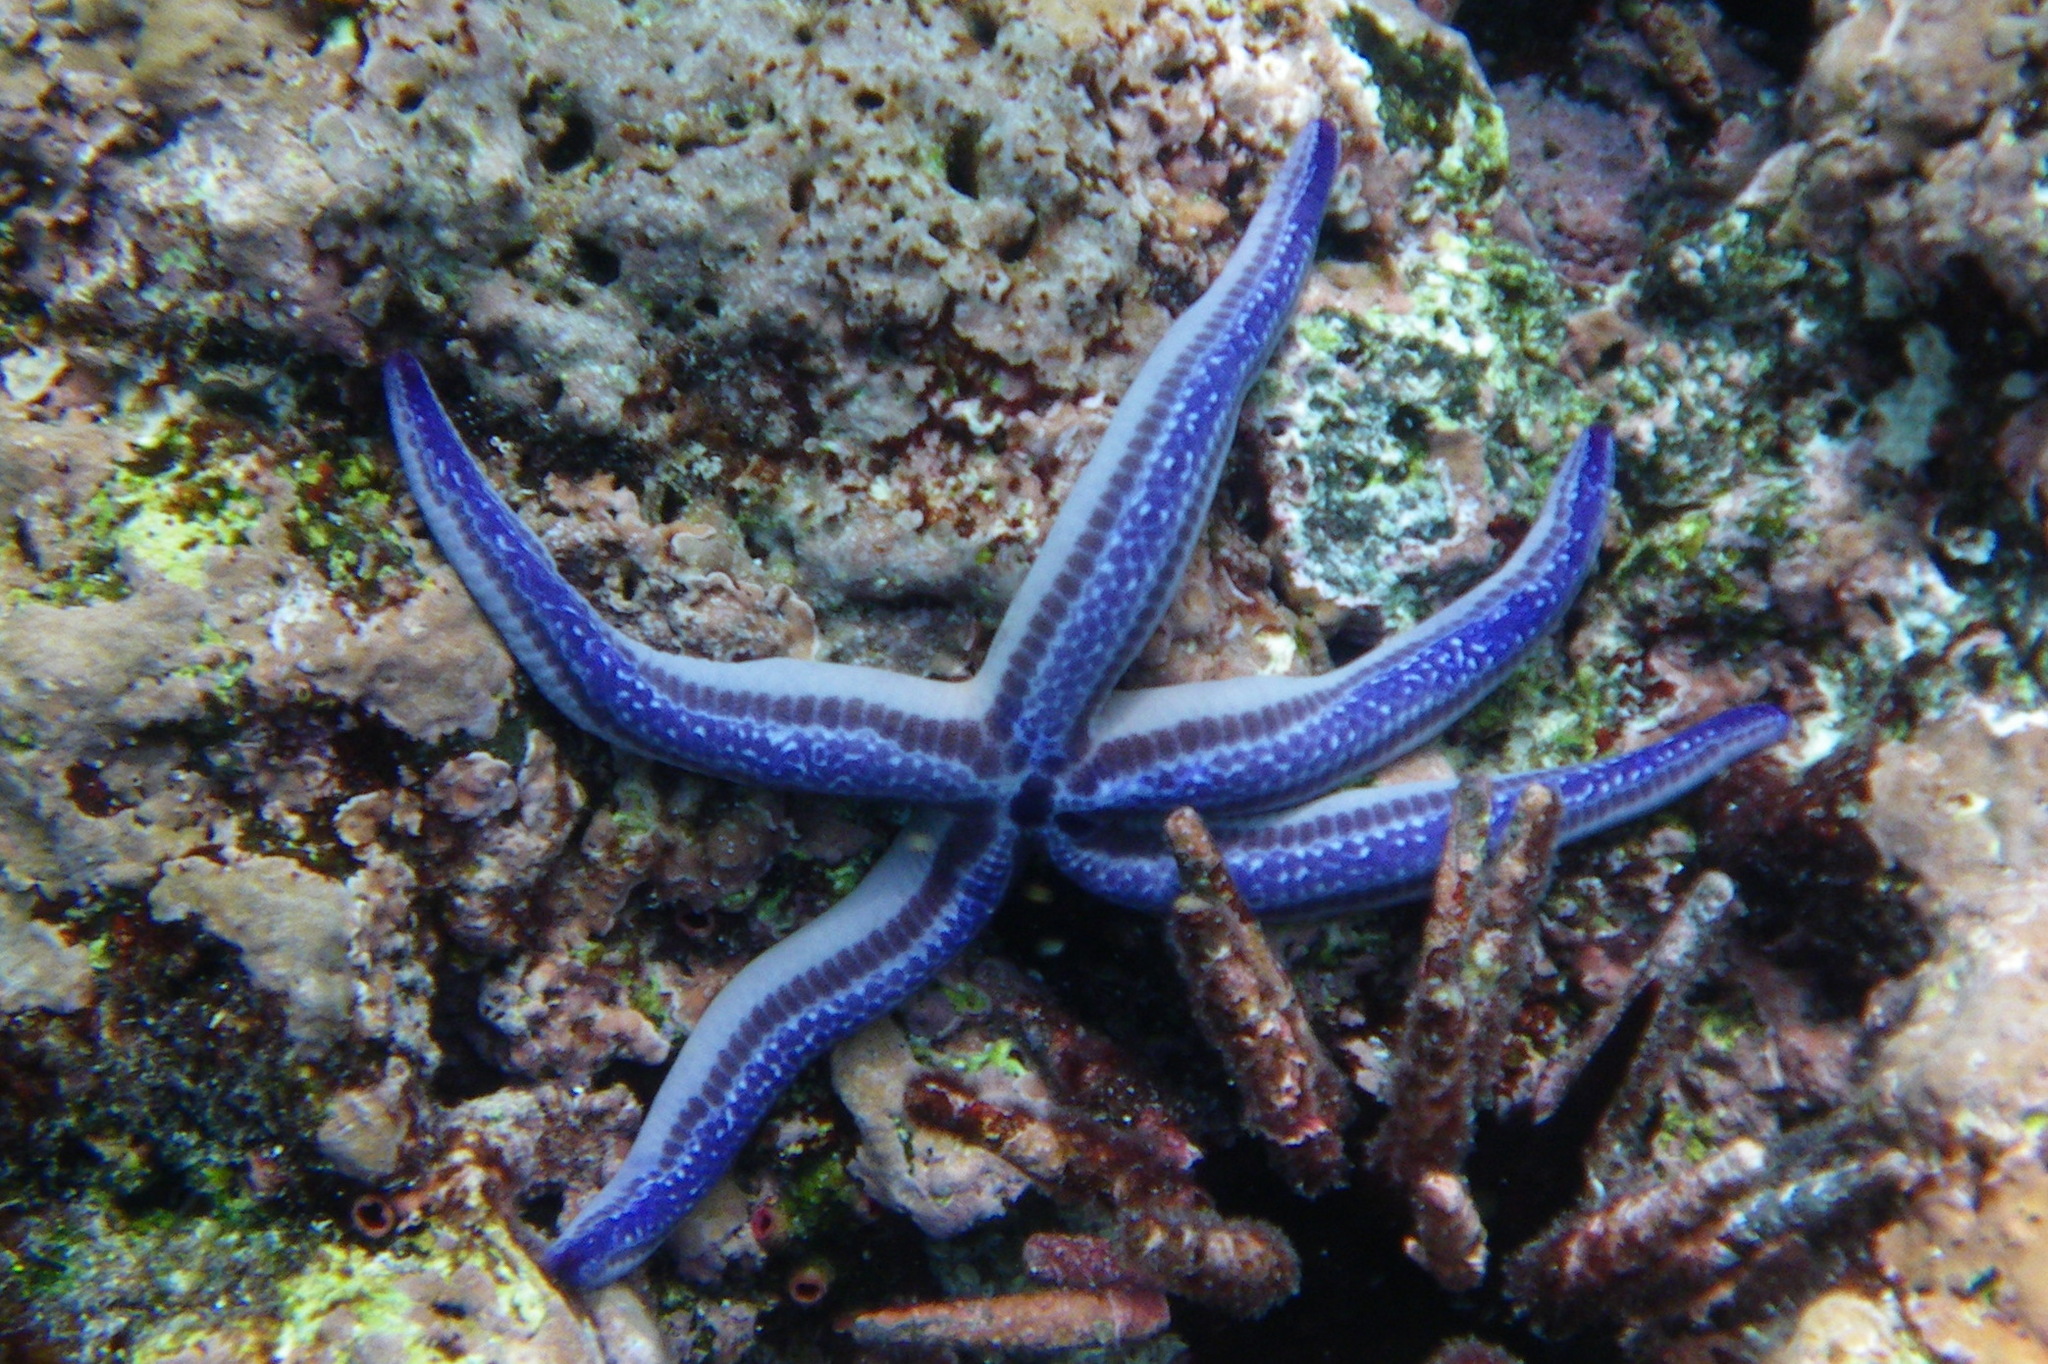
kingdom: Animalia
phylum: Echinodermata
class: Asteroidea
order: Valvatida
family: Ophidiasteridae
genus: Phataria
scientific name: Phataria unifascialis
